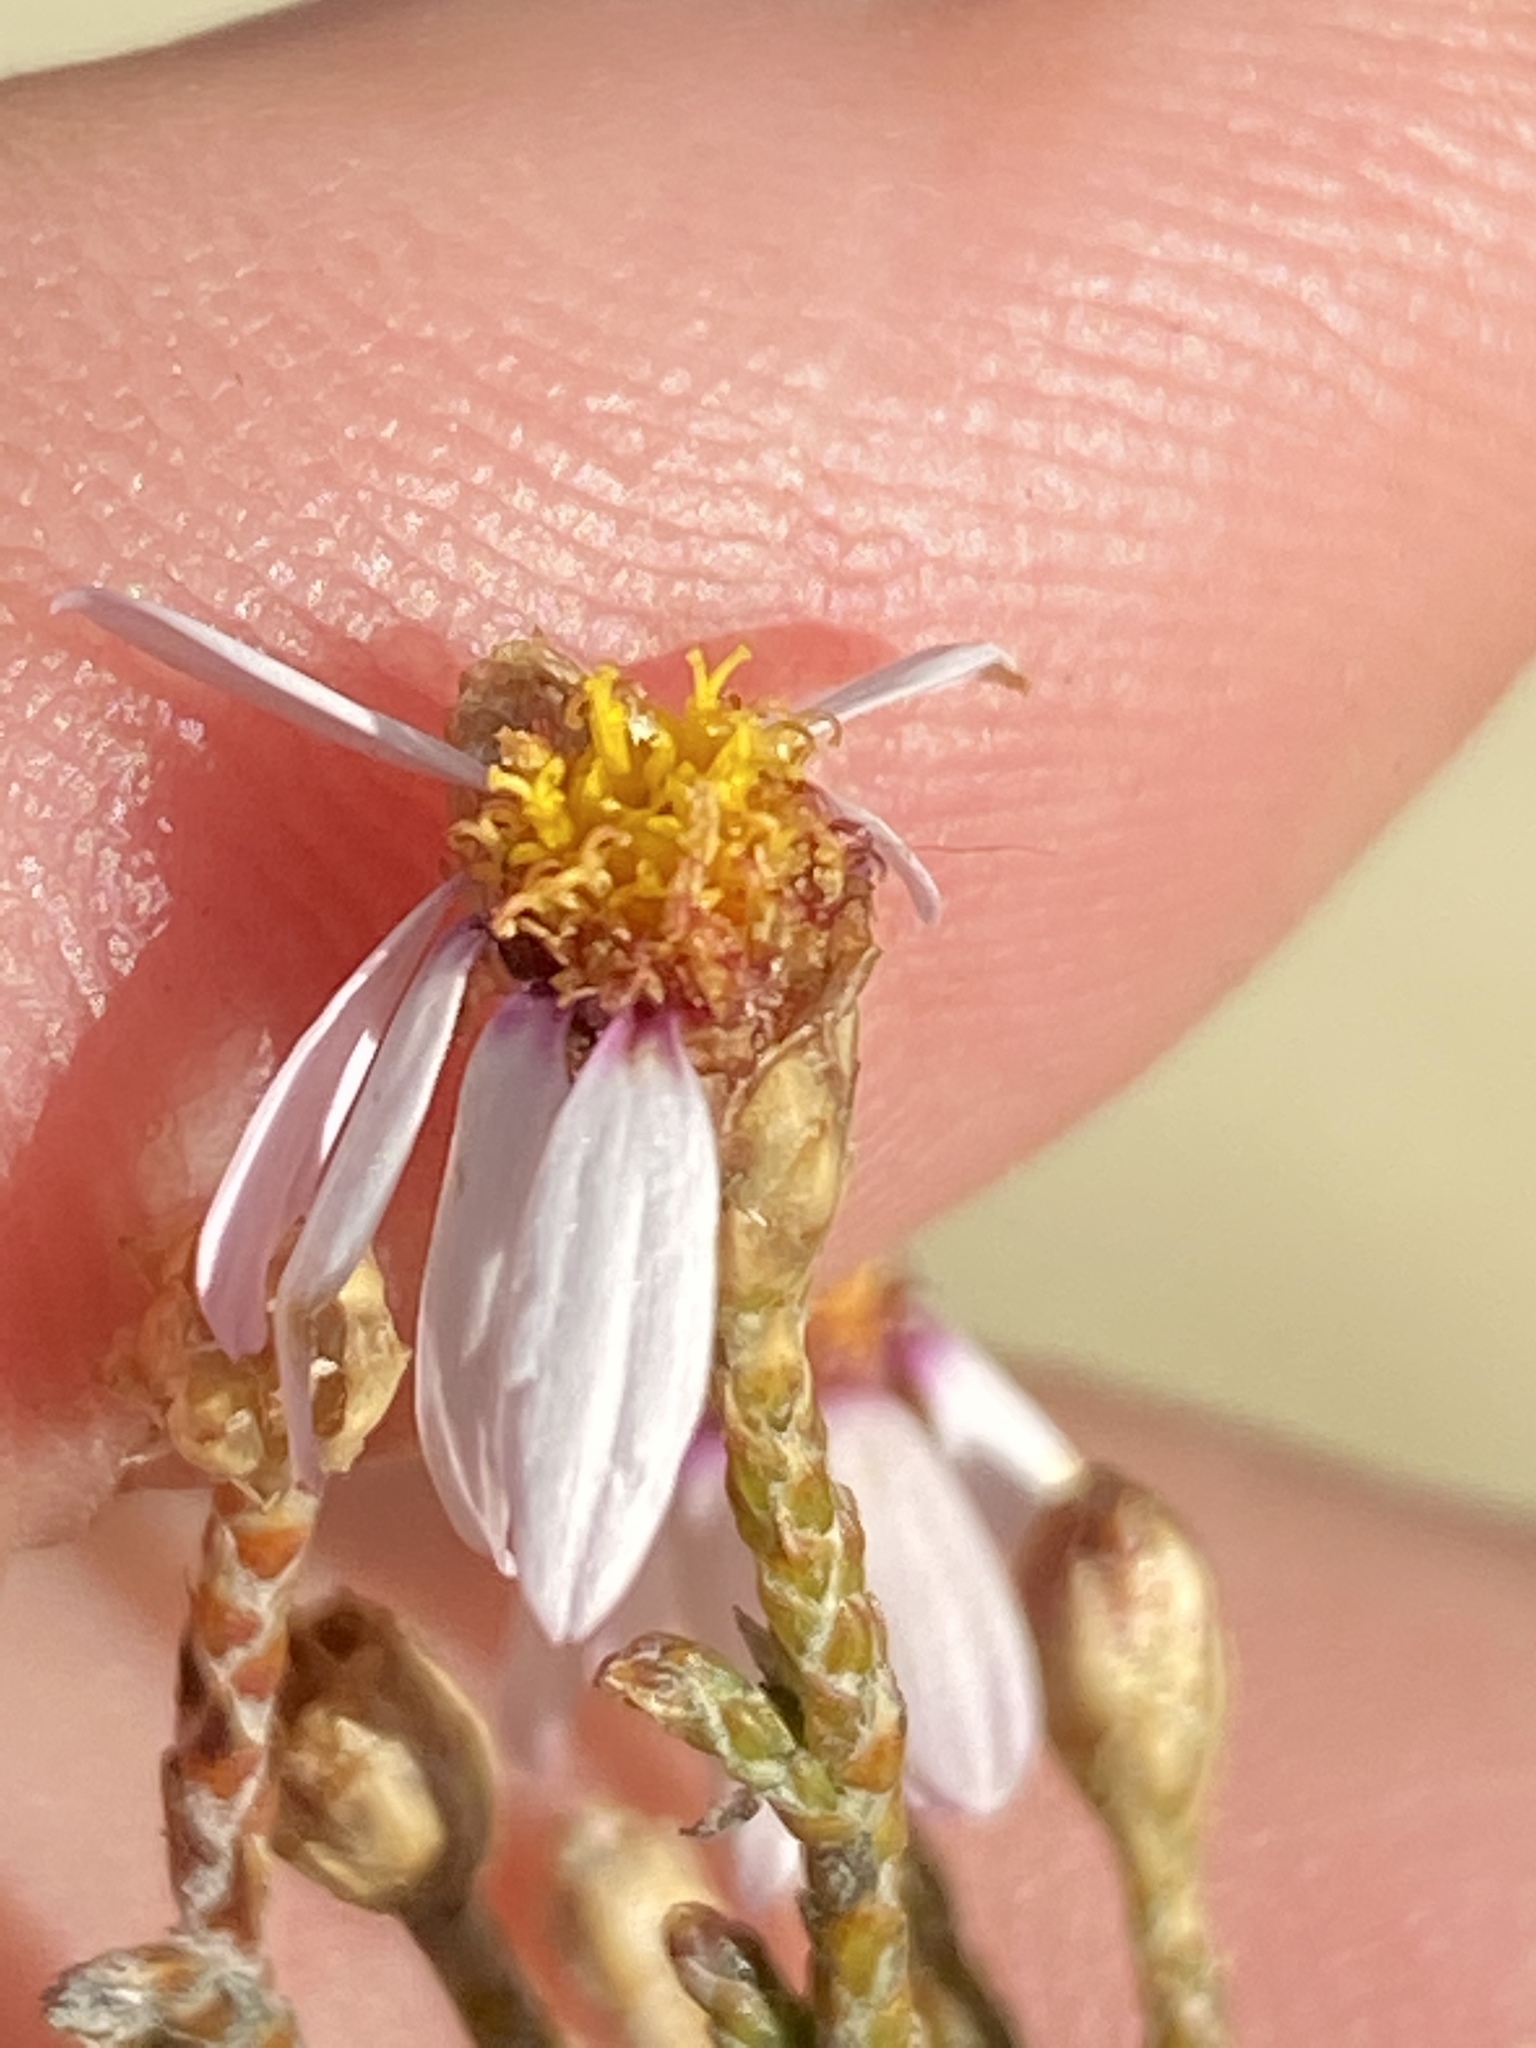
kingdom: Plantae
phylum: Tracheophyta
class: Magnoliopsida
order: Asterales
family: Asteraceae
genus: Phymaspermum
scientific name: Phymaspermum appressum
